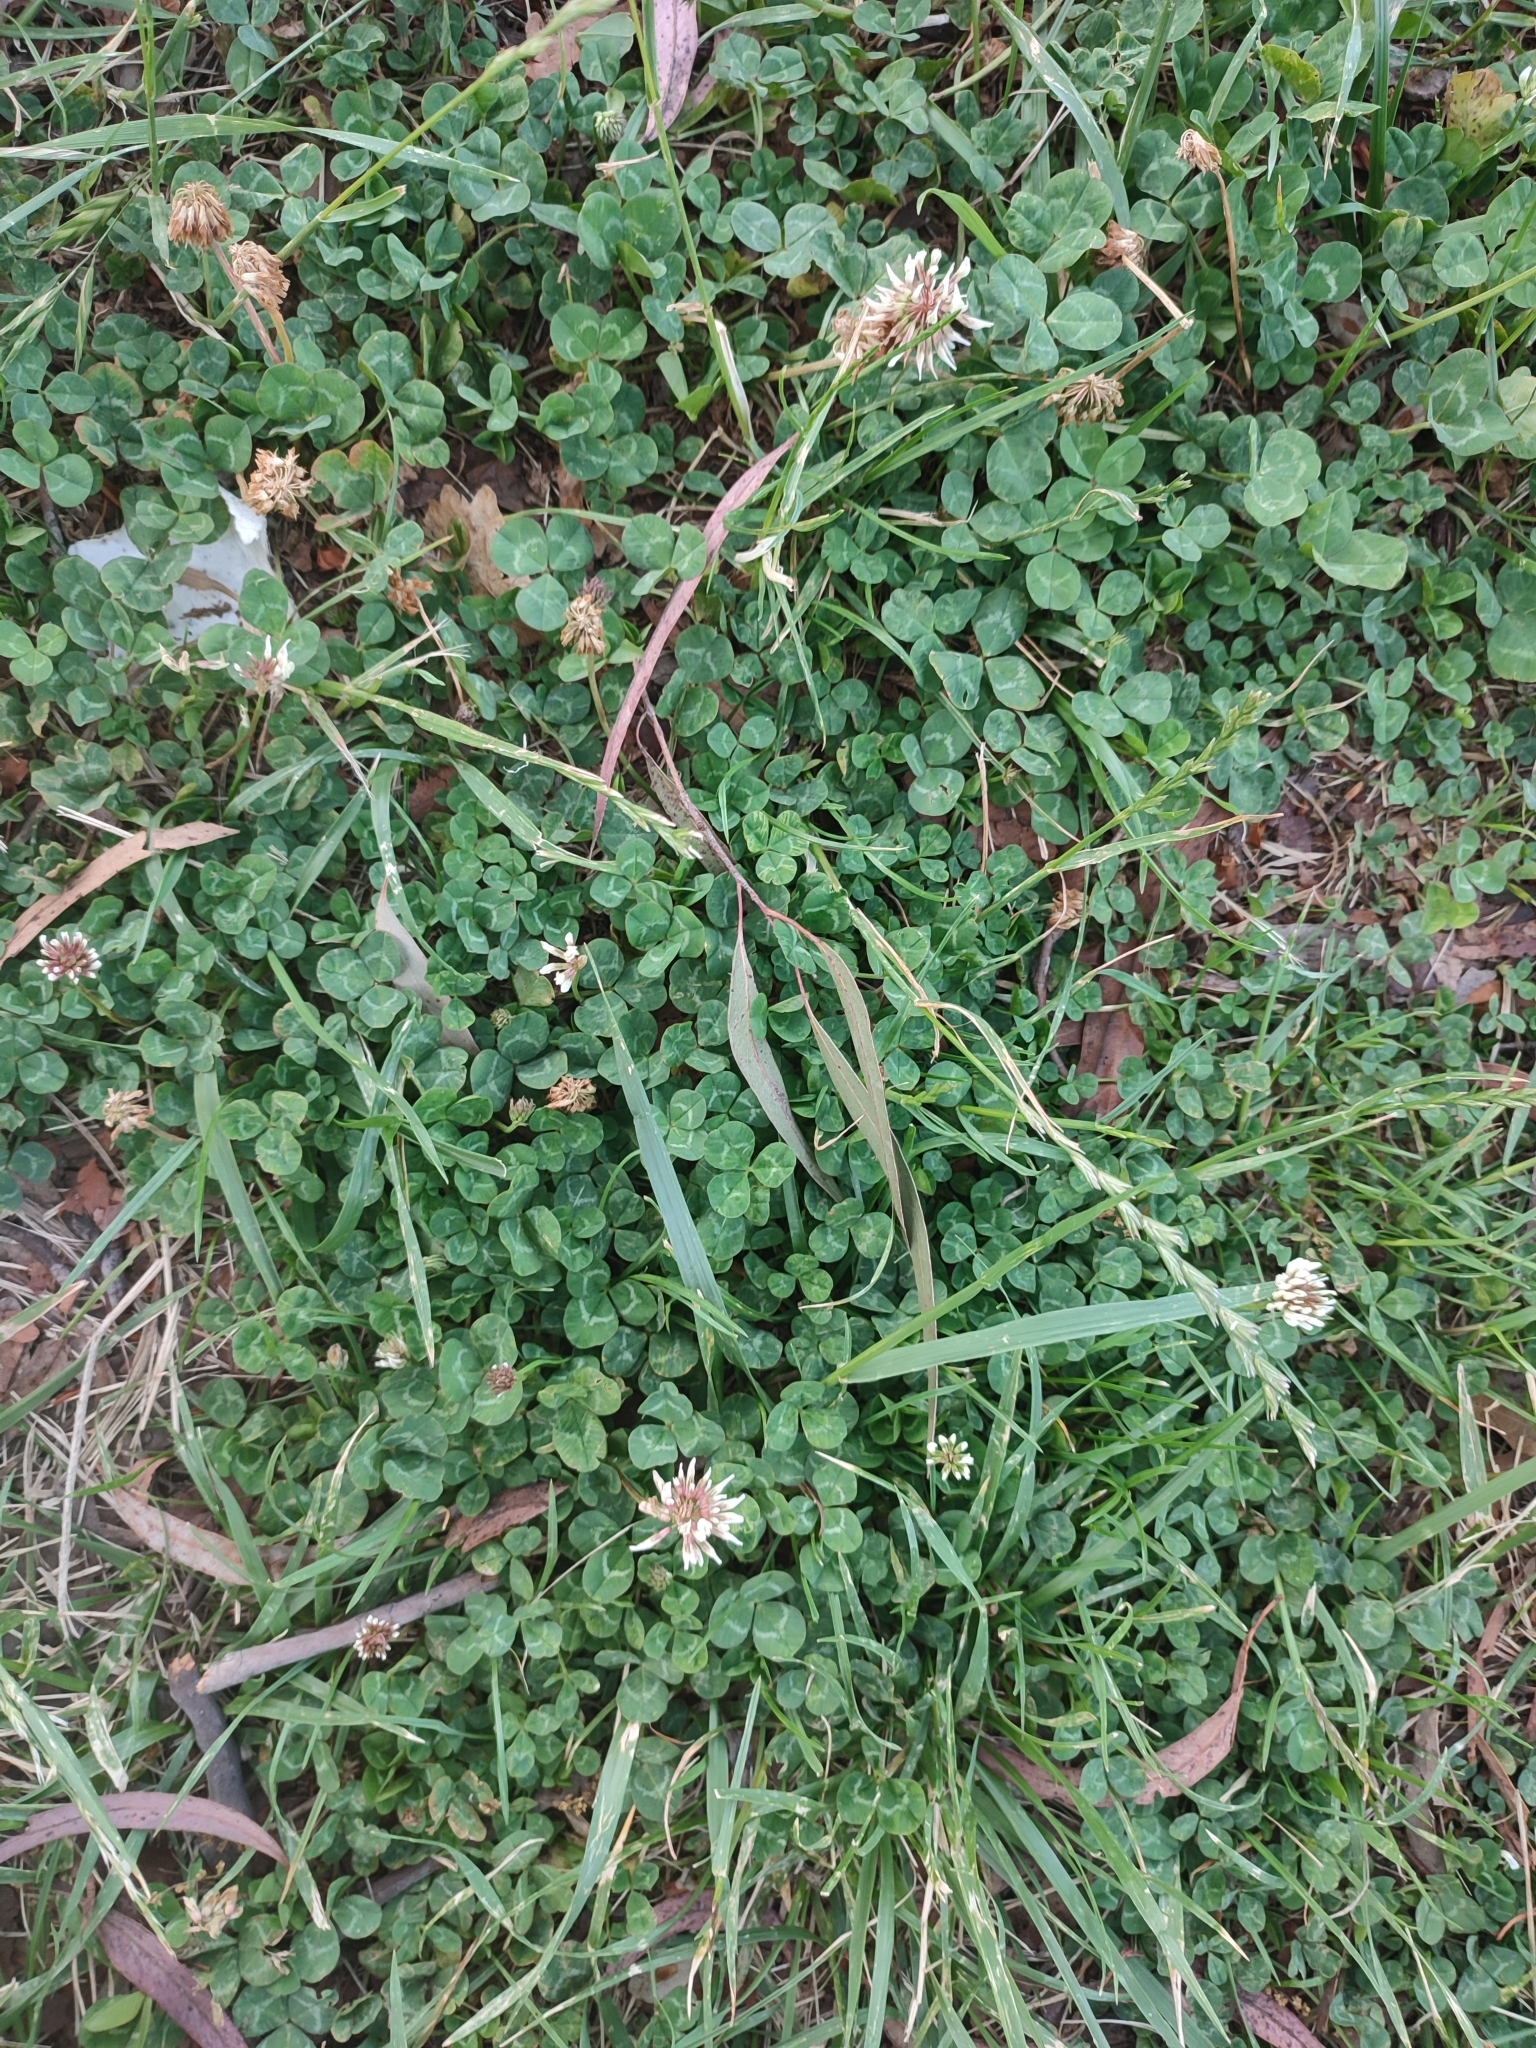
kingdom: Plantae
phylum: Tracheophyta
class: Magnoliopsida
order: Fabales
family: Fabaceae
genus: Trifolium
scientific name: Trifolium repens
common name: White clover
